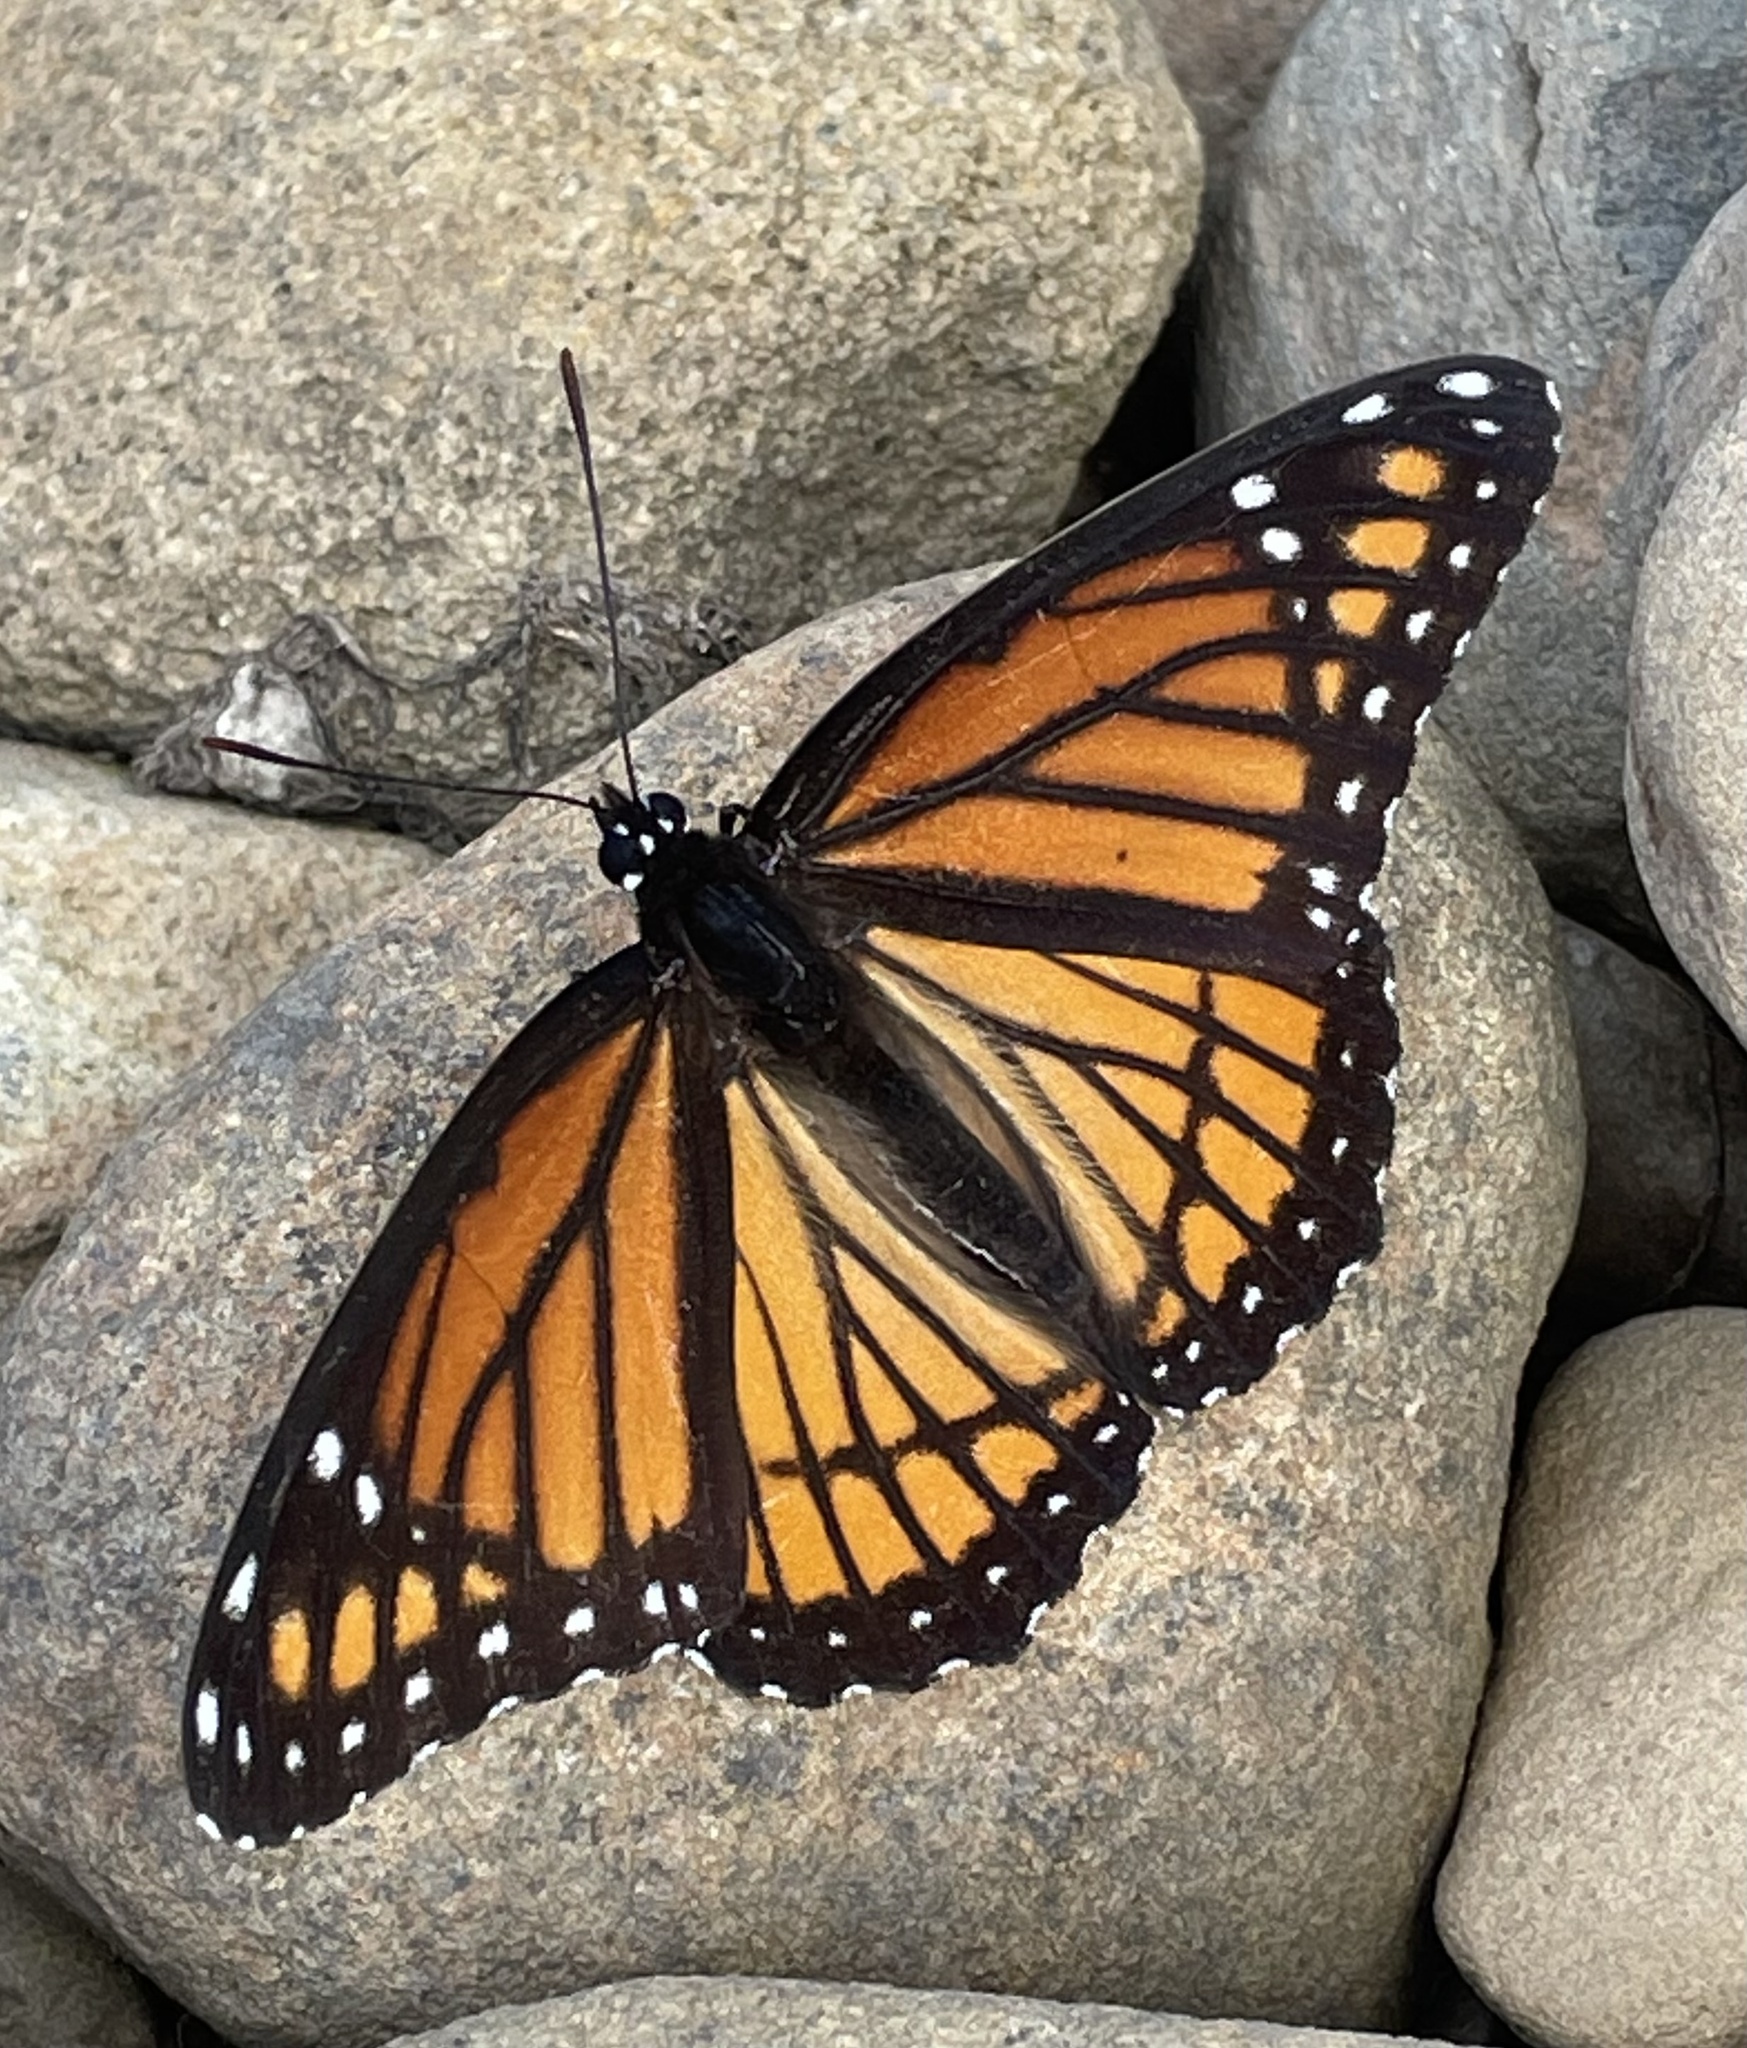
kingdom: Animalia
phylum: Arthropoda
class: Insecta
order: Lepidoptera
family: Nymphalidae
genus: Limenitis
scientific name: Limenitis archippus
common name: Viceroy
